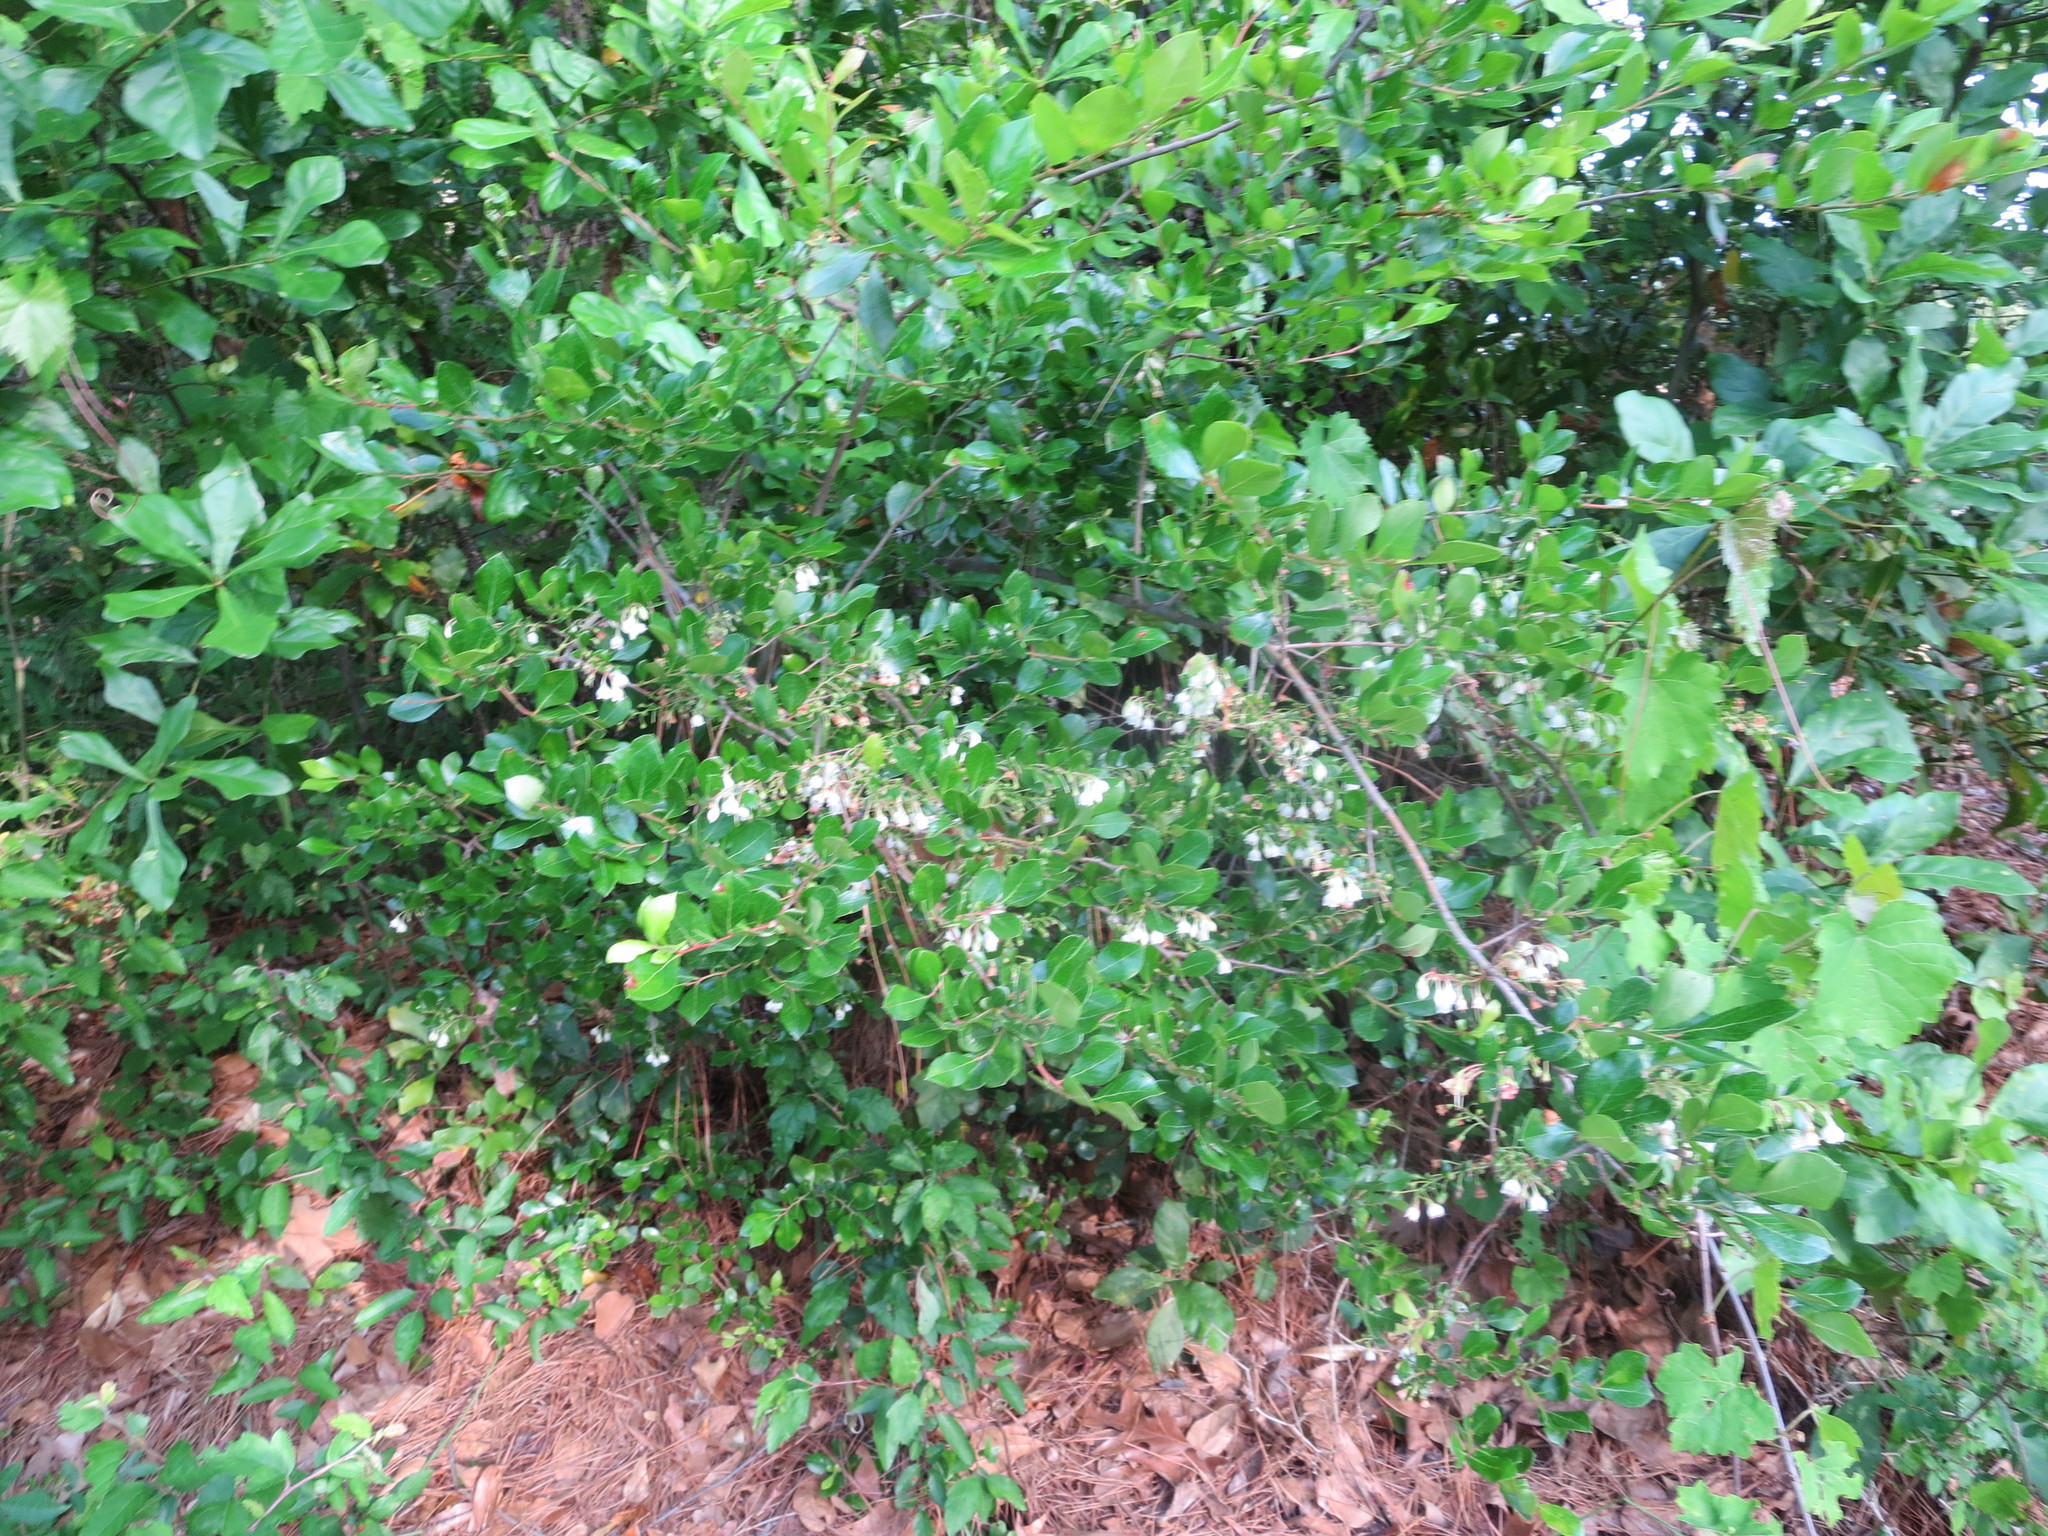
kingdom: Plantae
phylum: Tracheophyta
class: Magnoliopsida
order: Ericales
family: Ericaceae
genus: Vaccinium
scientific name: Vaccinium arboreum
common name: Farkleberry
